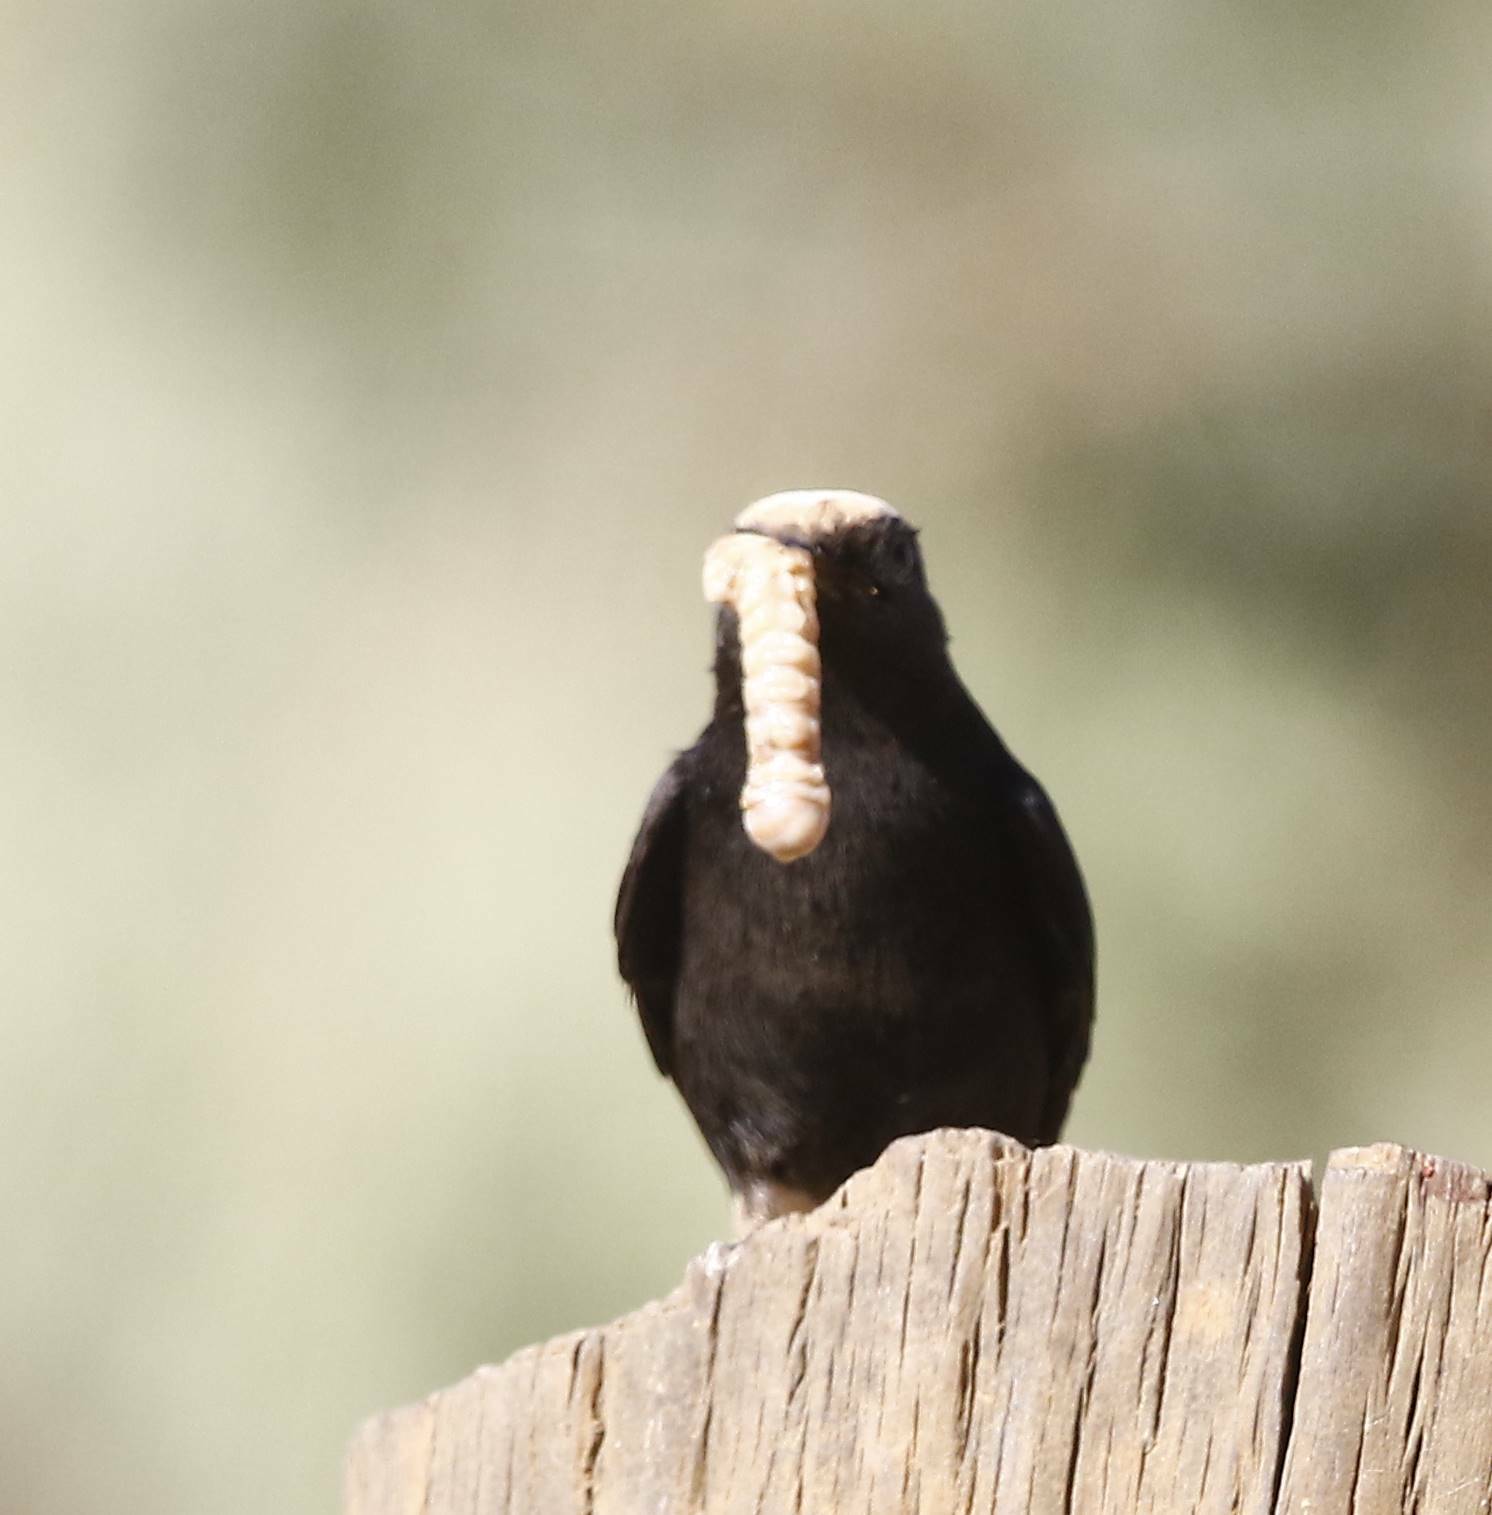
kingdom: Animalia
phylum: Chordata
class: Aves
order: Passeriformes
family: Muscicapidae
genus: Oenanthe
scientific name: Oenanthe leucopyga
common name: White-crowned wheatear
